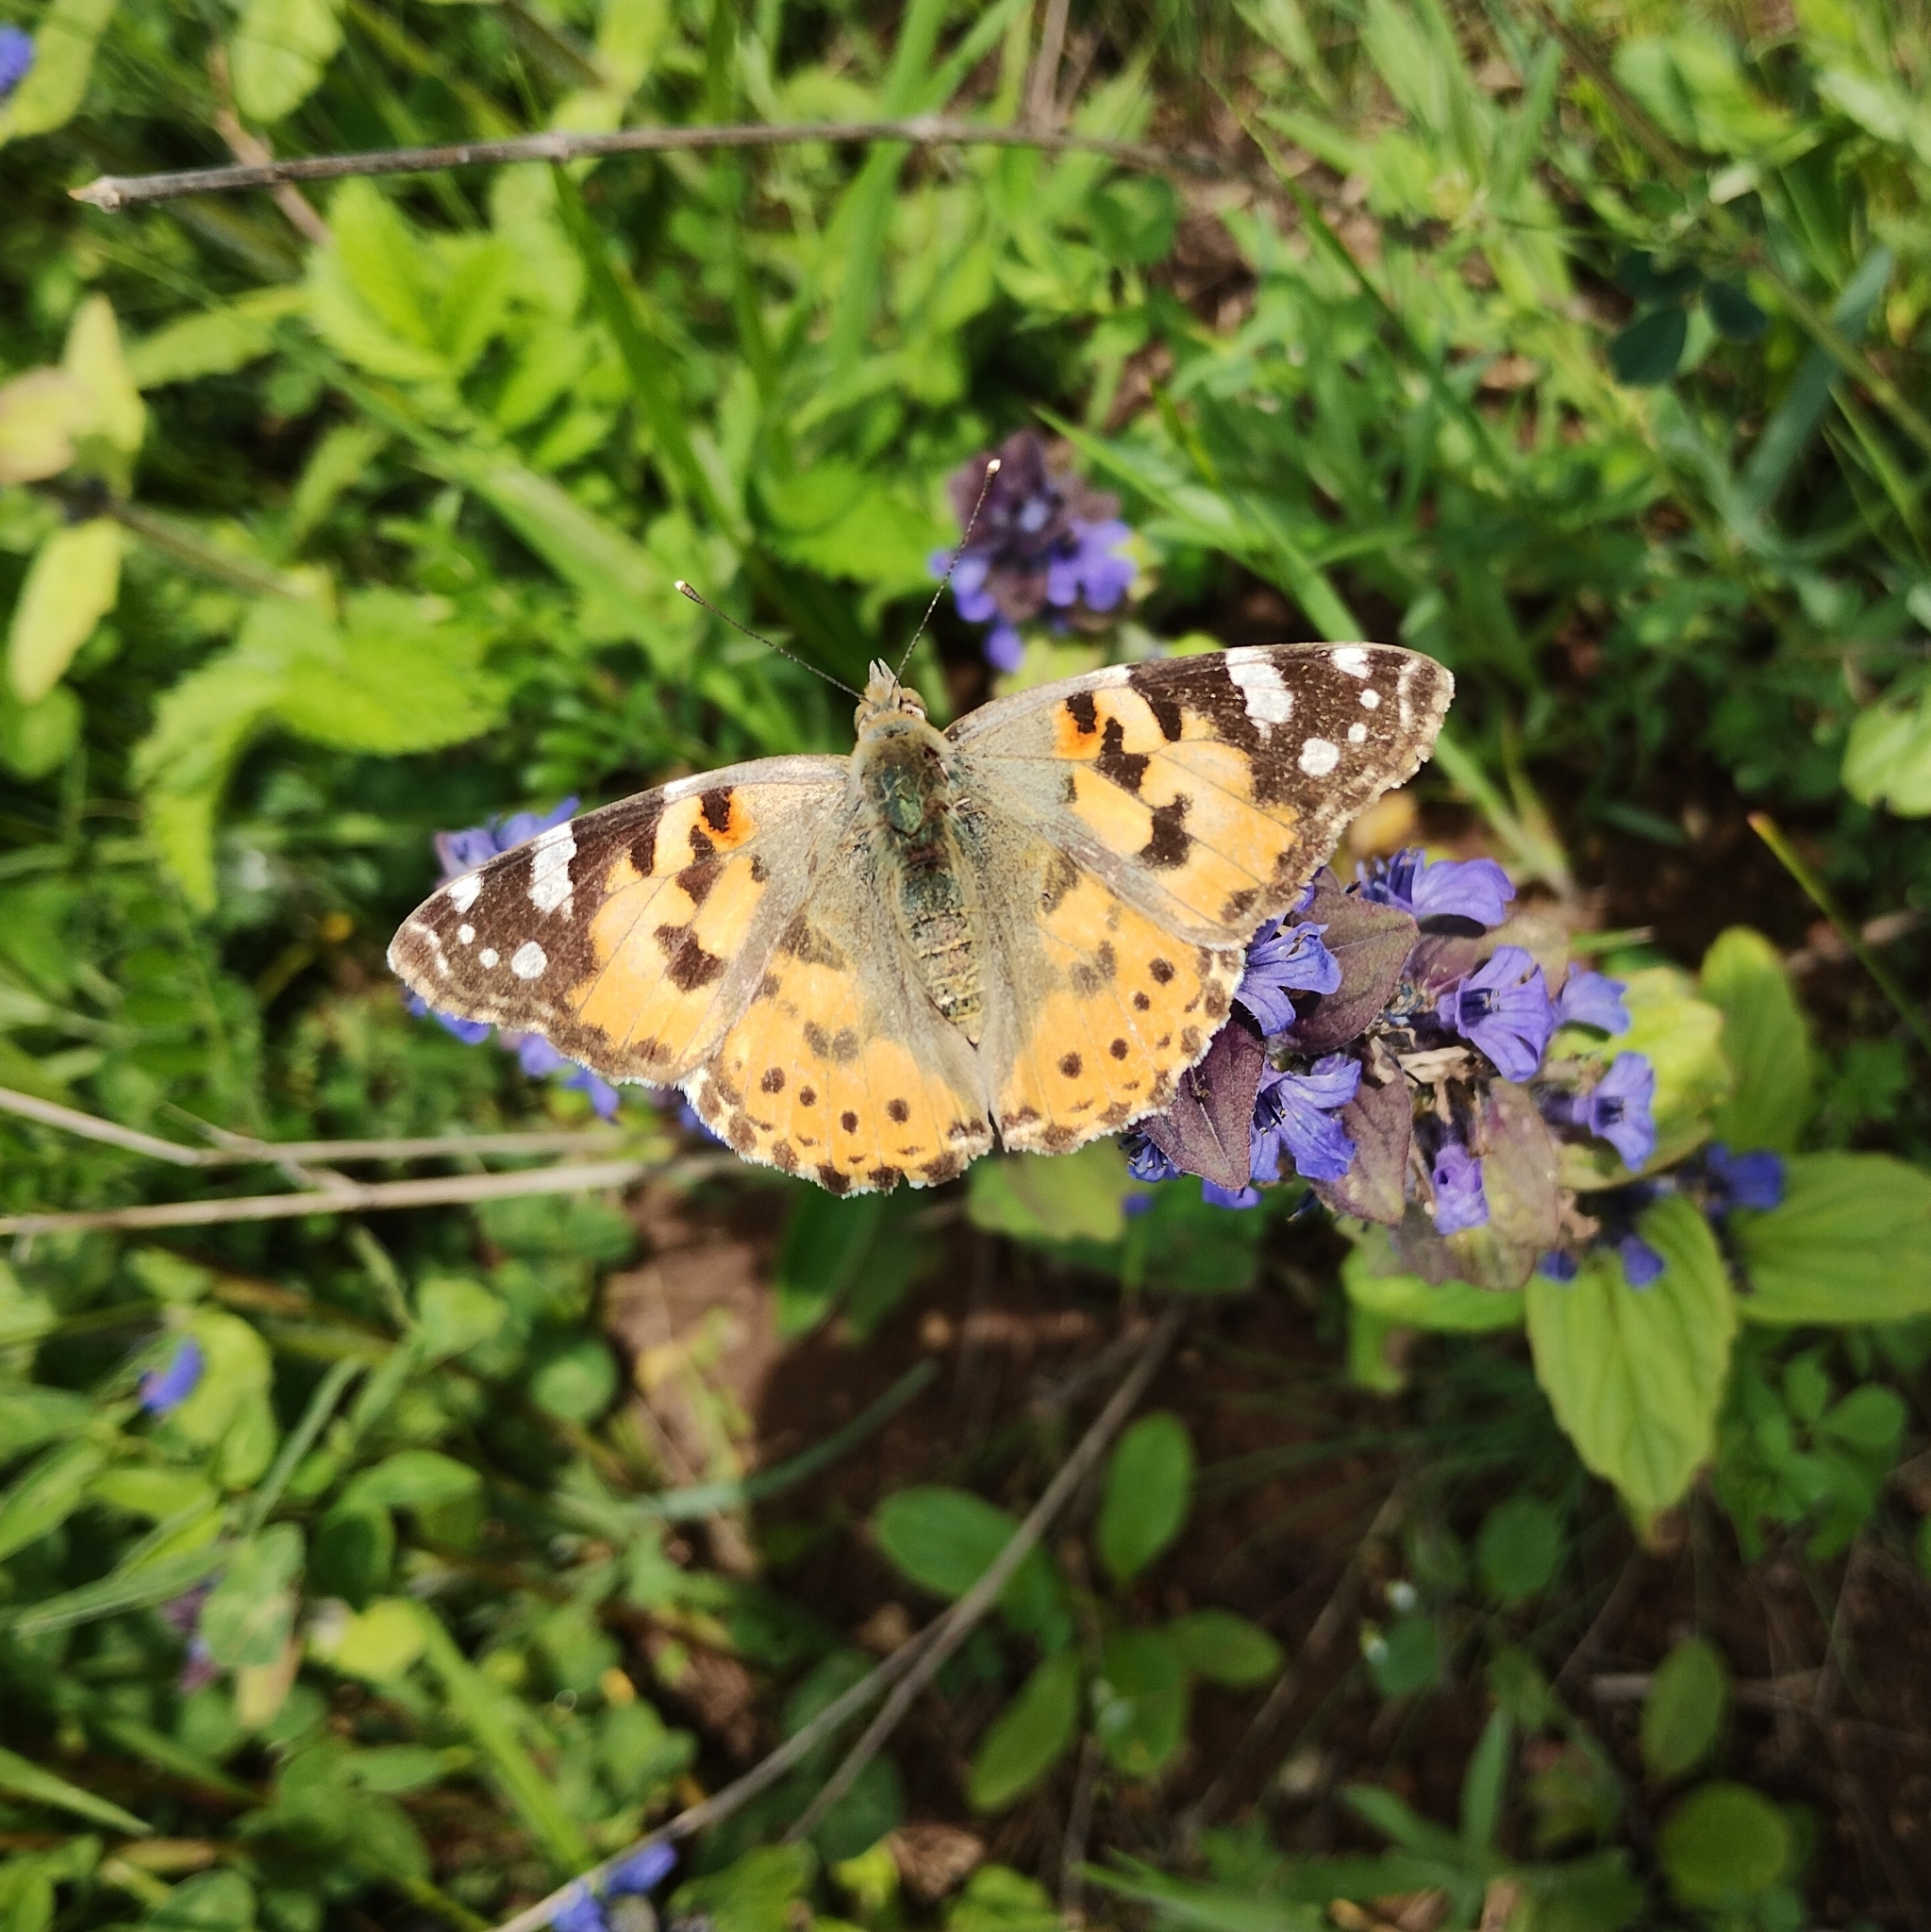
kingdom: Animalia
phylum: Arthropoda
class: Insecta
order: Lepidoptera
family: Nymphalidae
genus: Vanessa
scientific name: Vanessa cardui
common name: Painted lady
